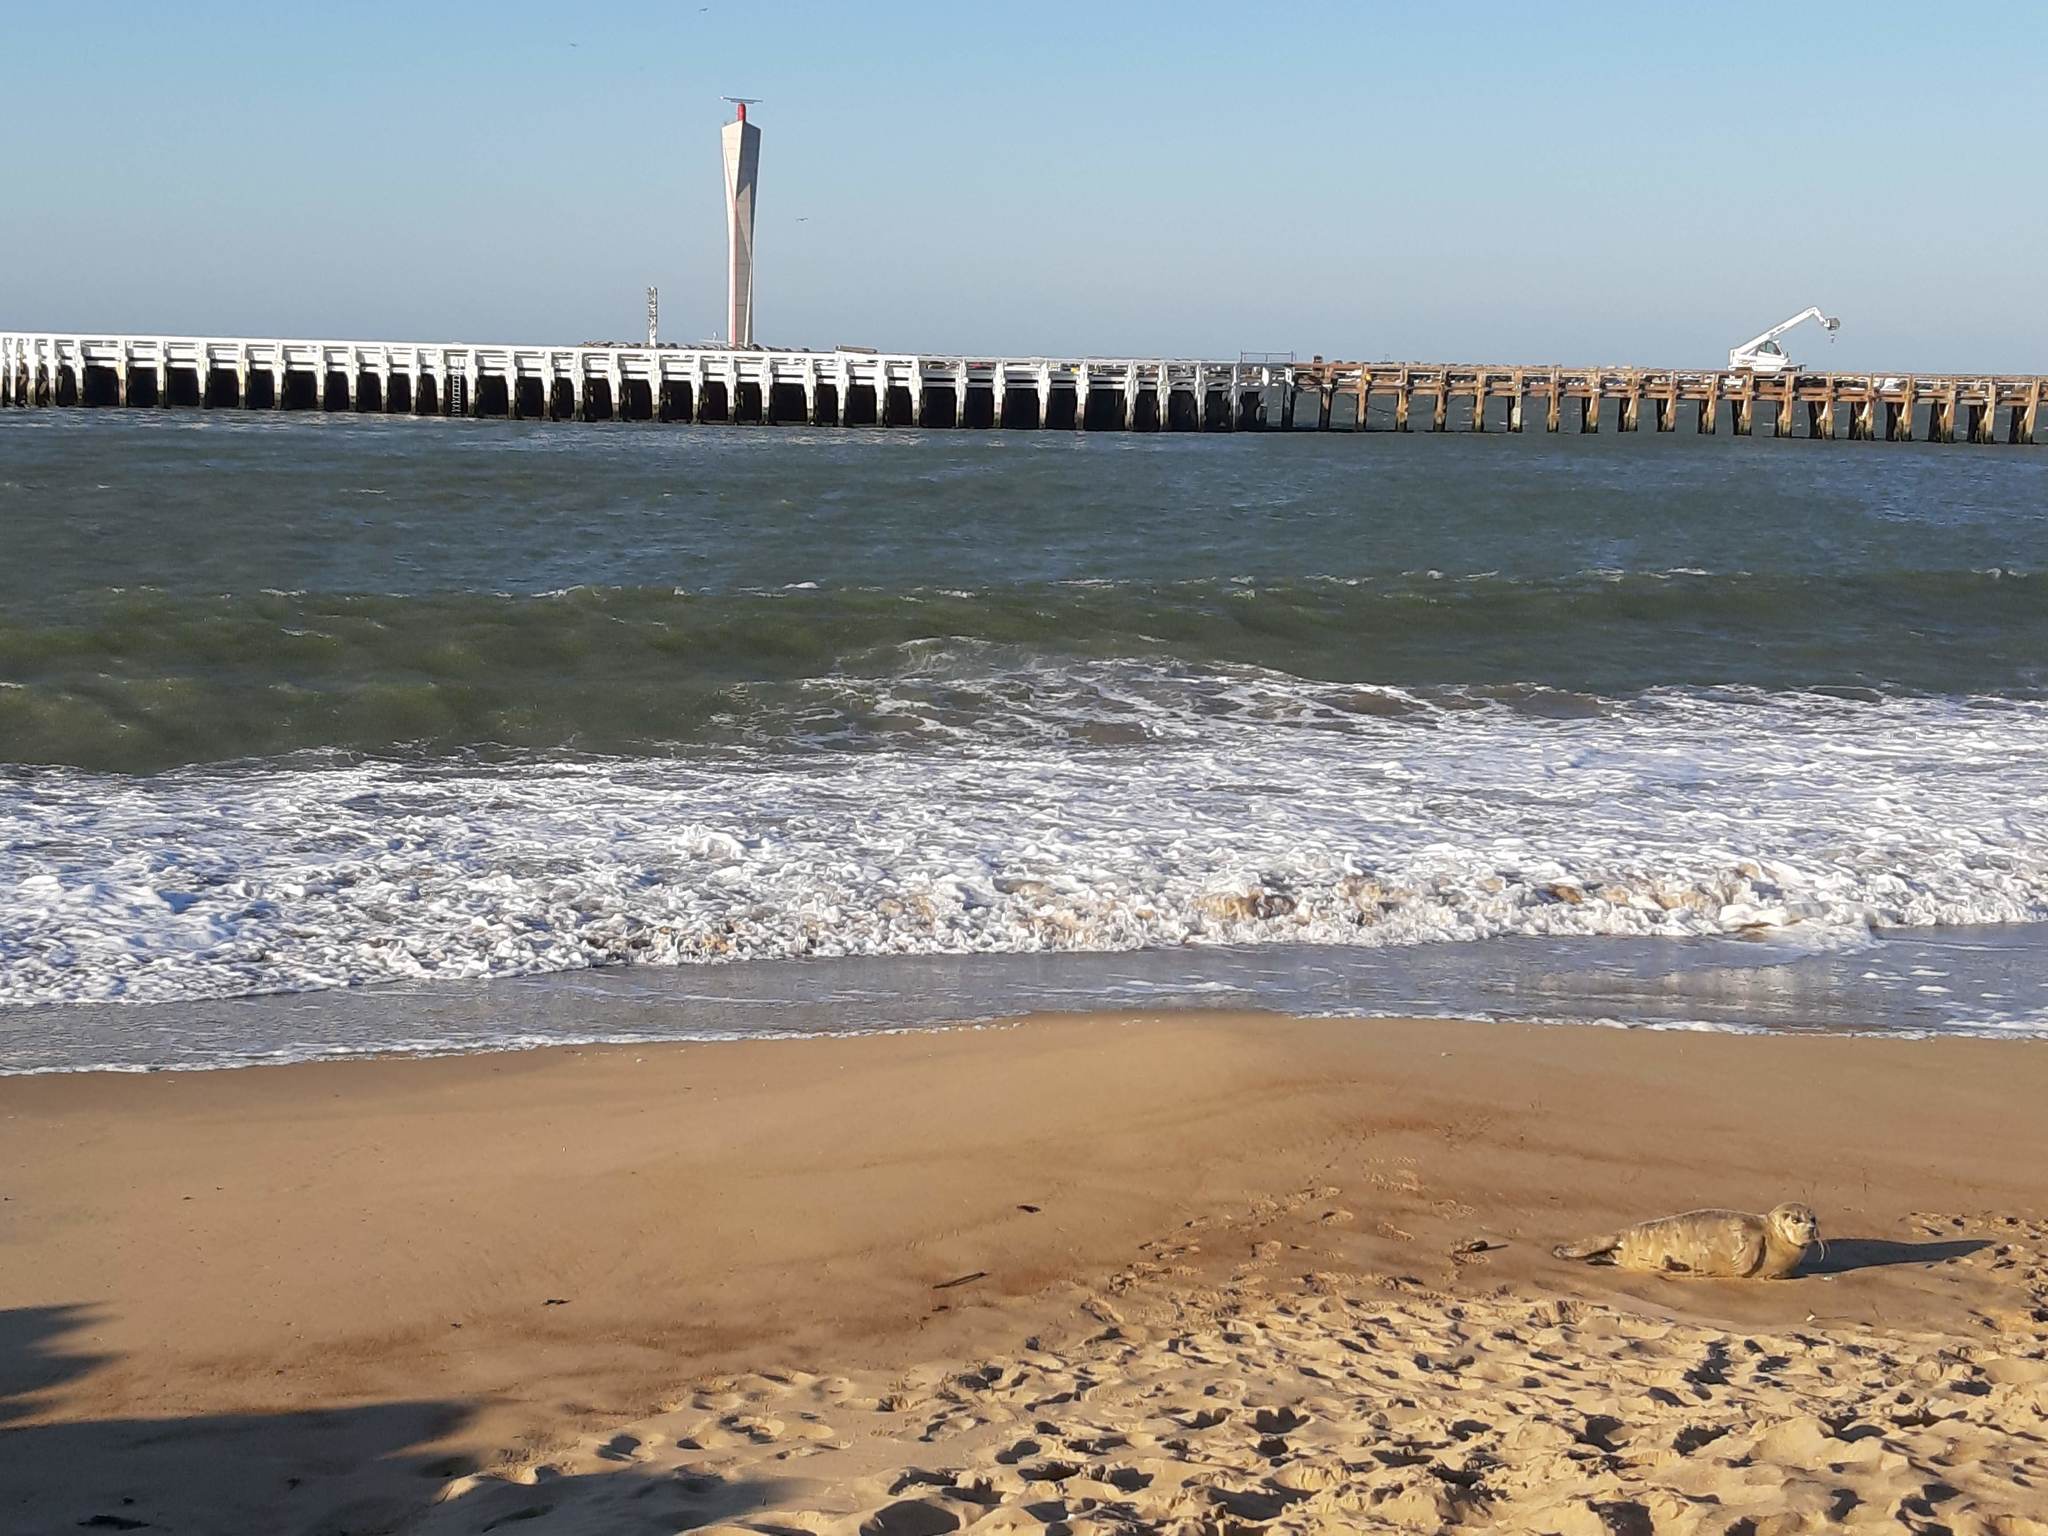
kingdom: Animalia
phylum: Chordata
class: Mammalia
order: Carnivora
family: Phocidae
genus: Phoca
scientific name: Phoca vitulina
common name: Harbor seal
